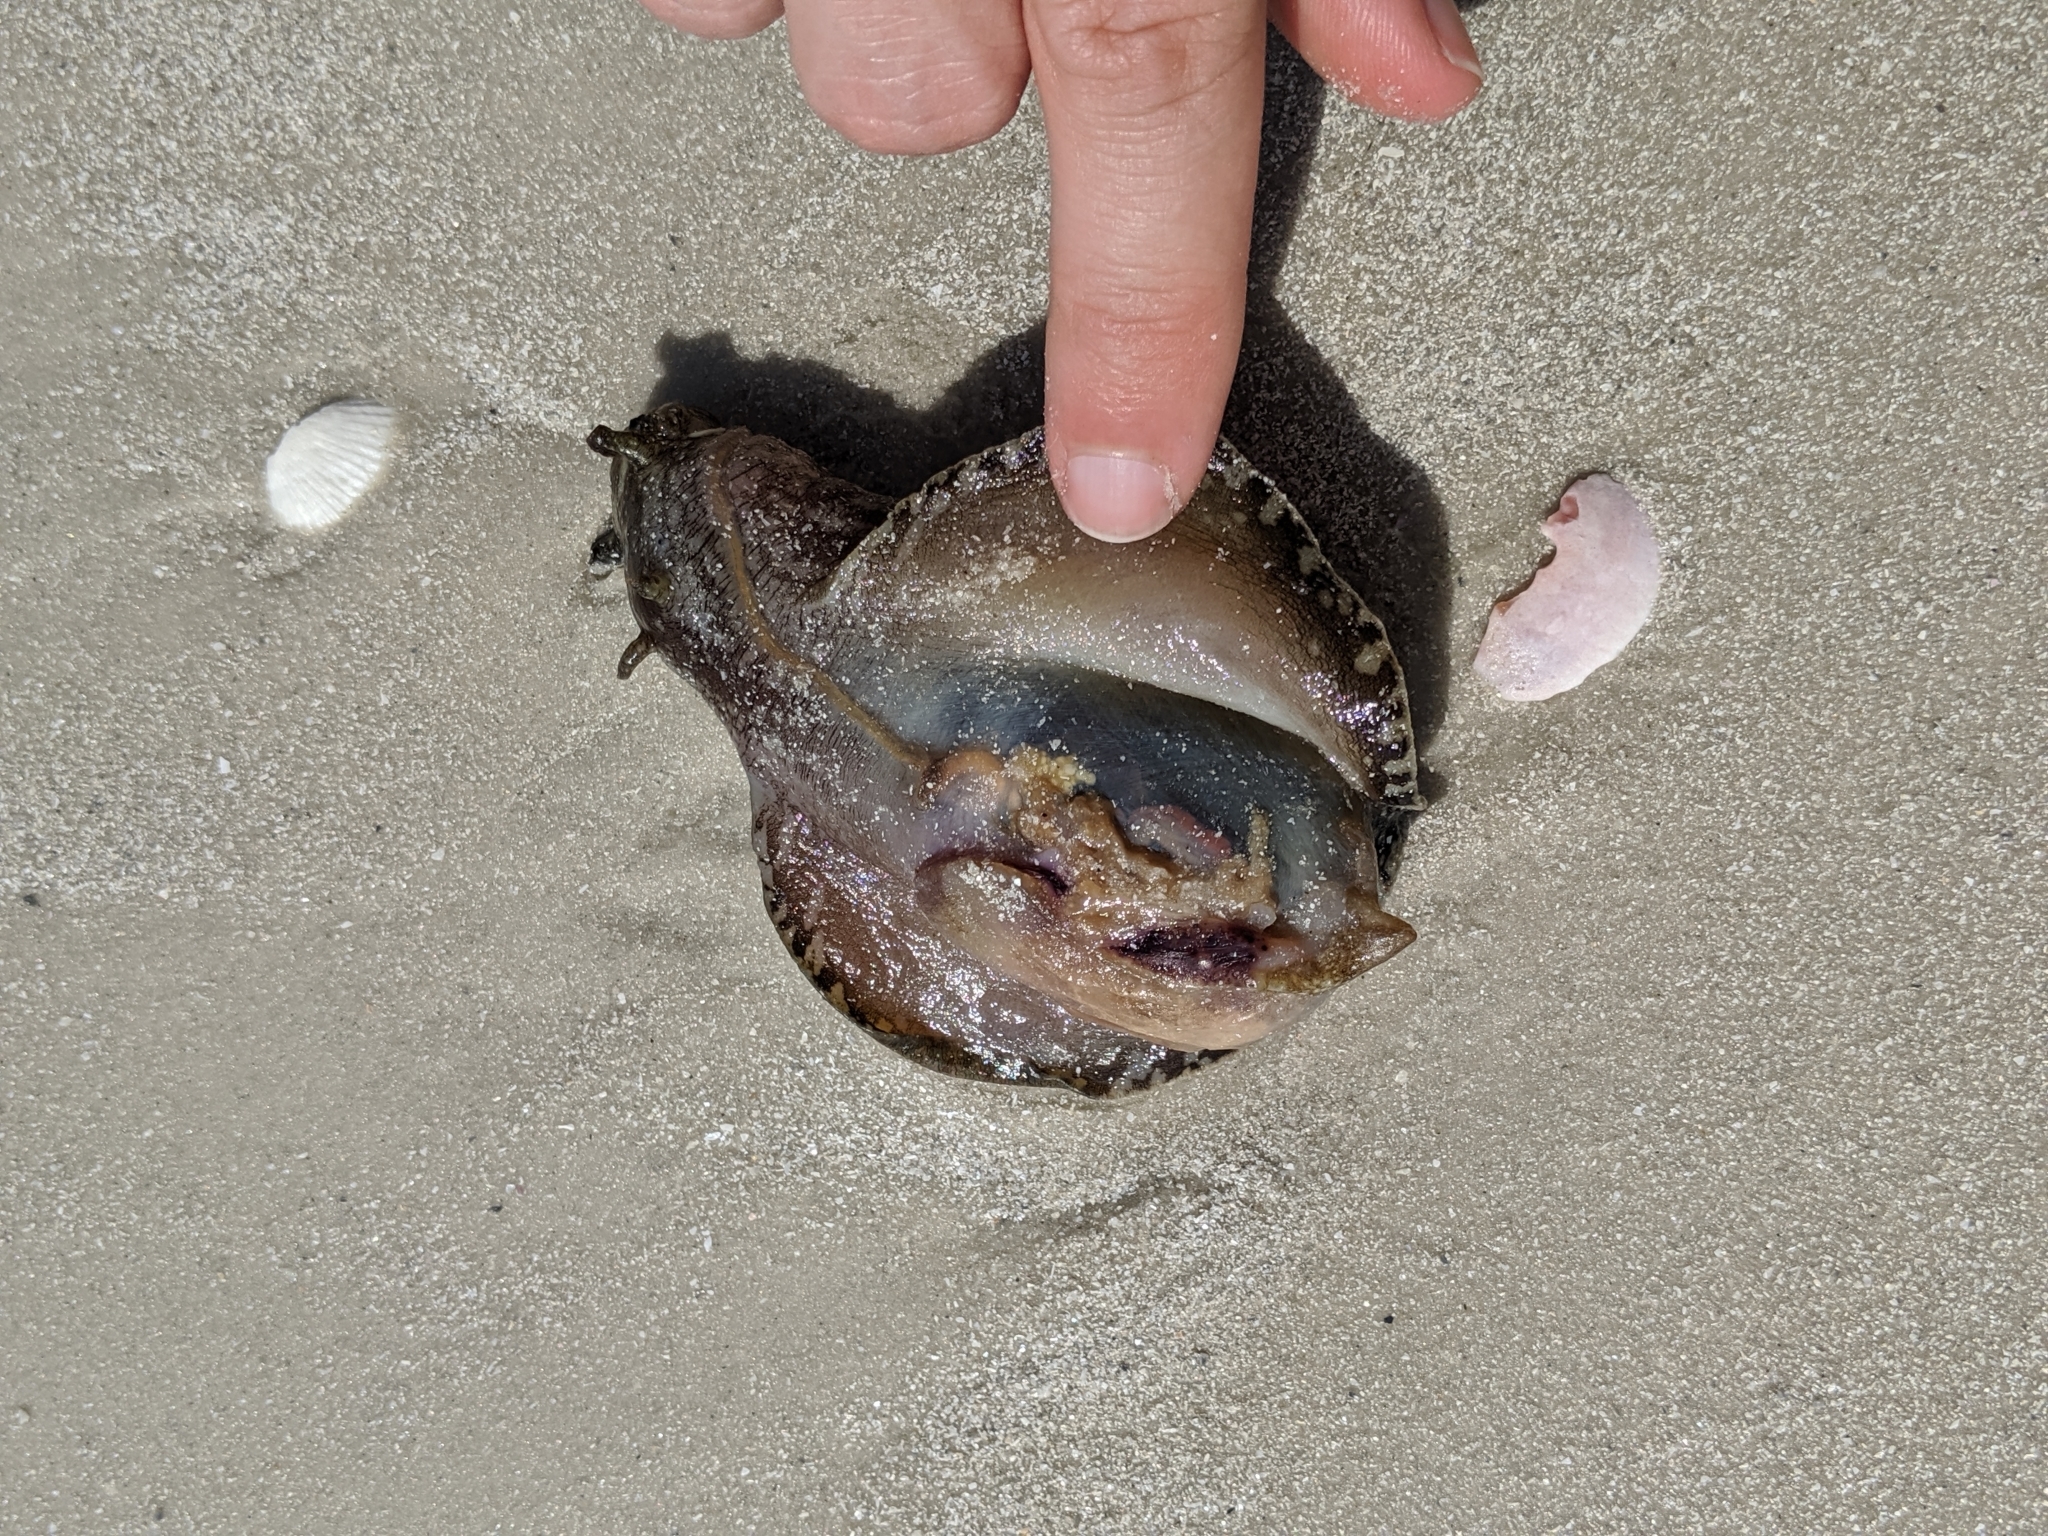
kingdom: Animalia
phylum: Mollusca
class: Gastropoda
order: Aplysiida
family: Aplysiidae
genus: Aplysia
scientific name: Aplysia brasiliana
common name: Mottled seahare
